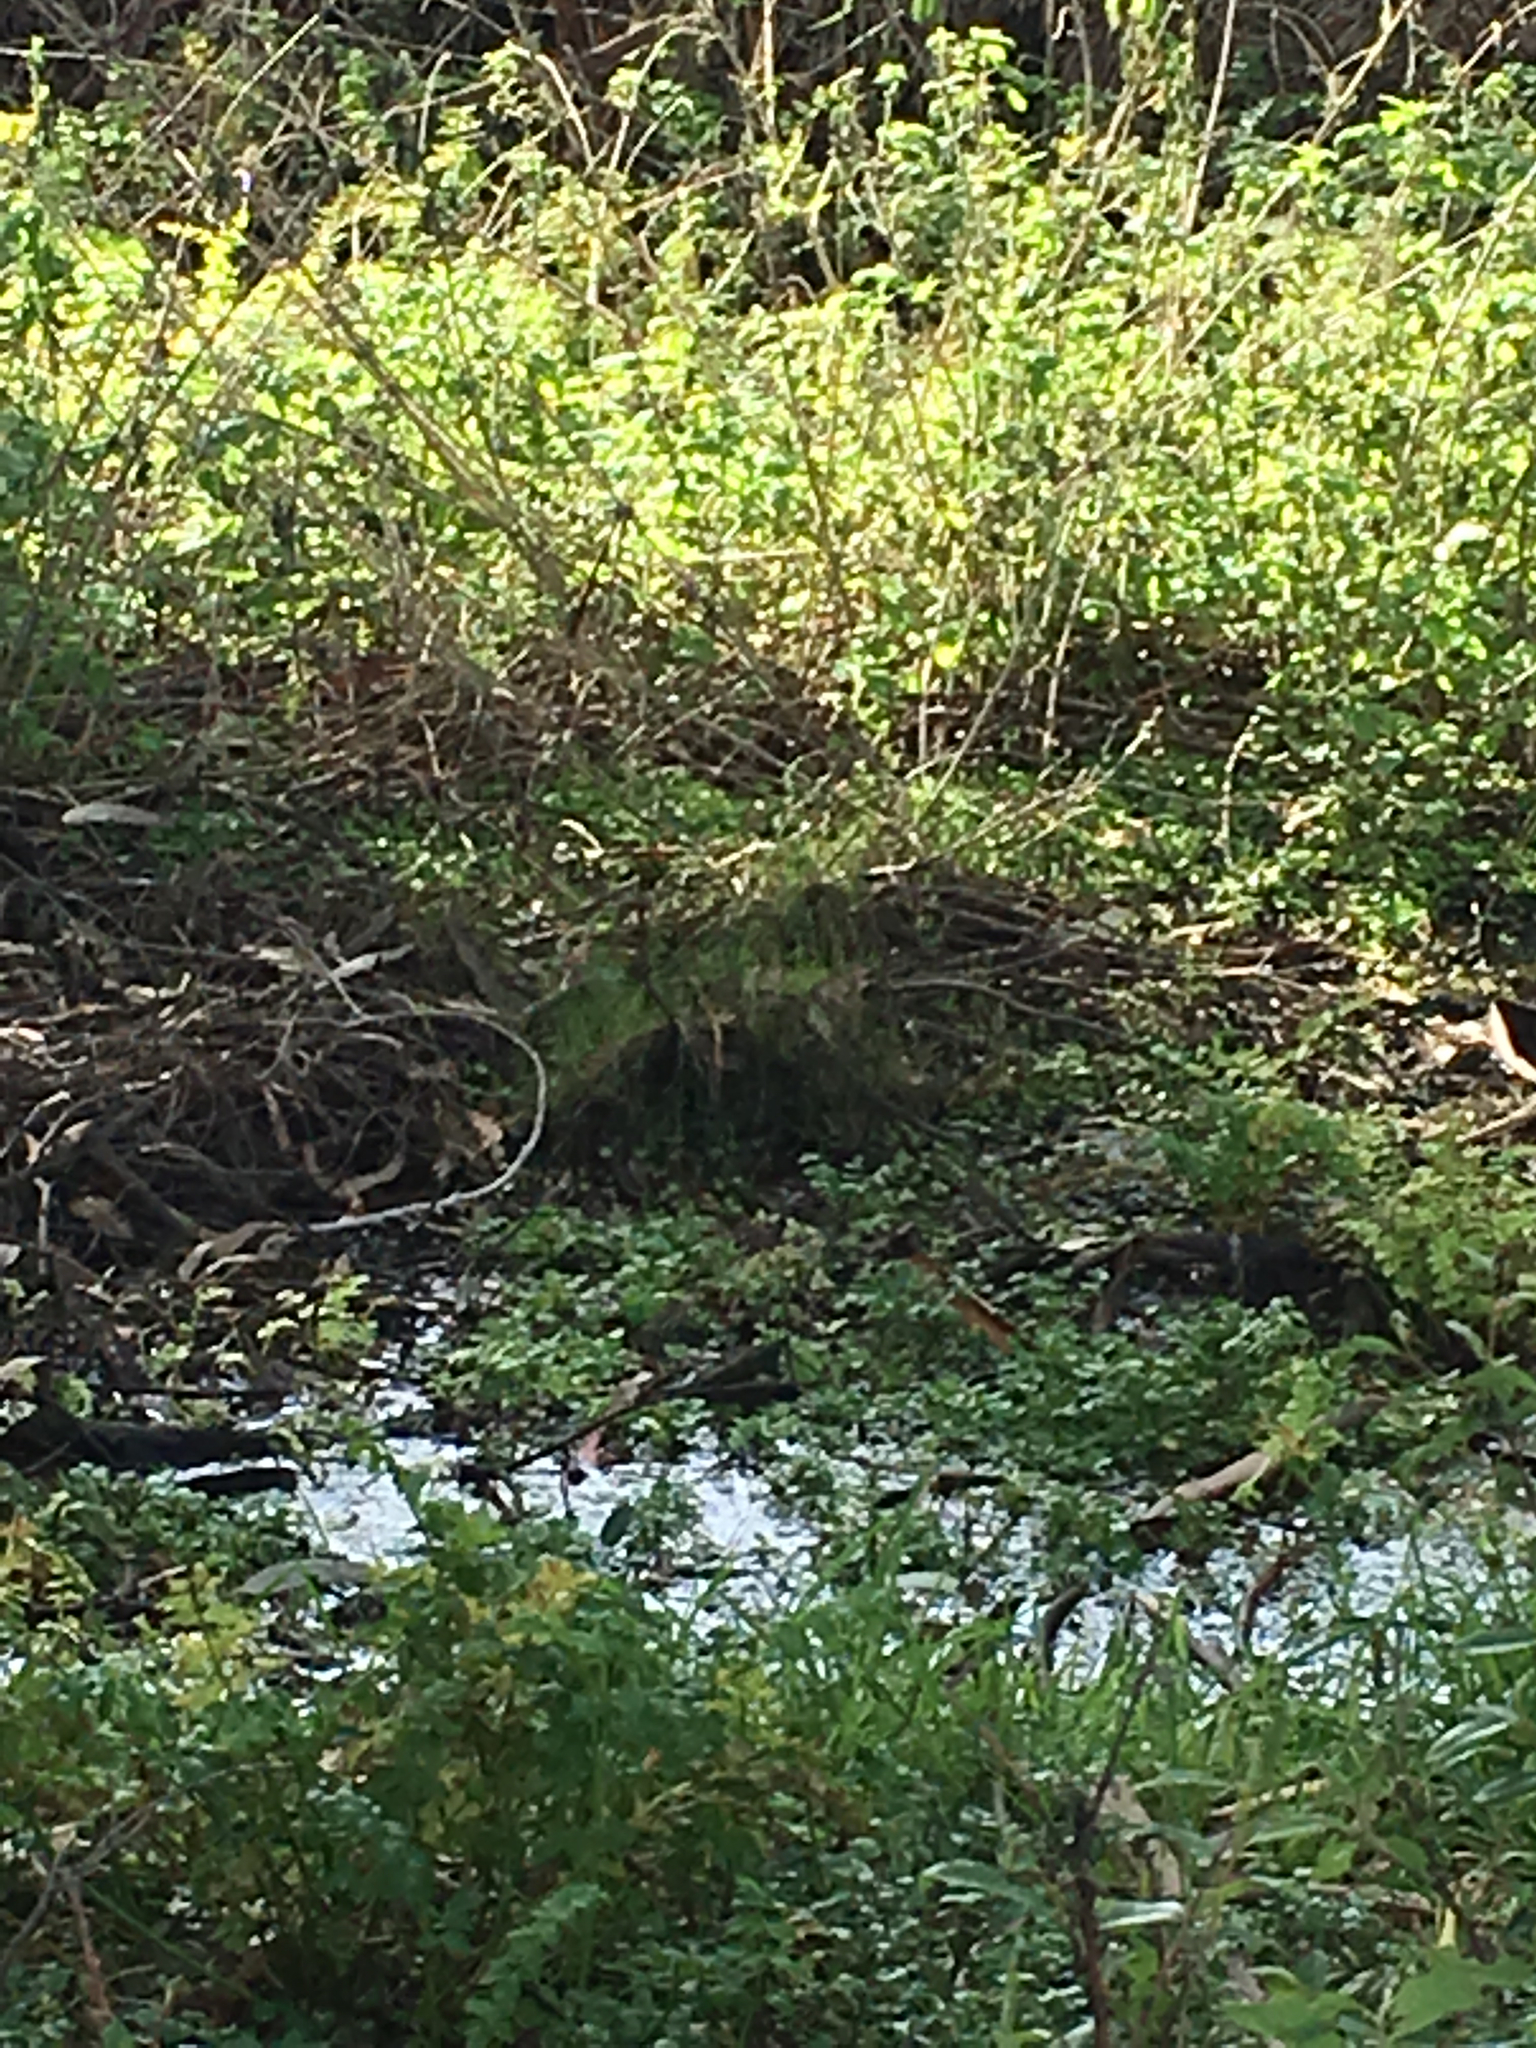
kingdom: Plantae
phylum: Tracheophyta
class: Magnoliopsida
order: Caryophyllales
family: Caryophyllaceae
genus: Arenaria
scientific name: Arenaria paludicola
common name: Marsh sandwort
